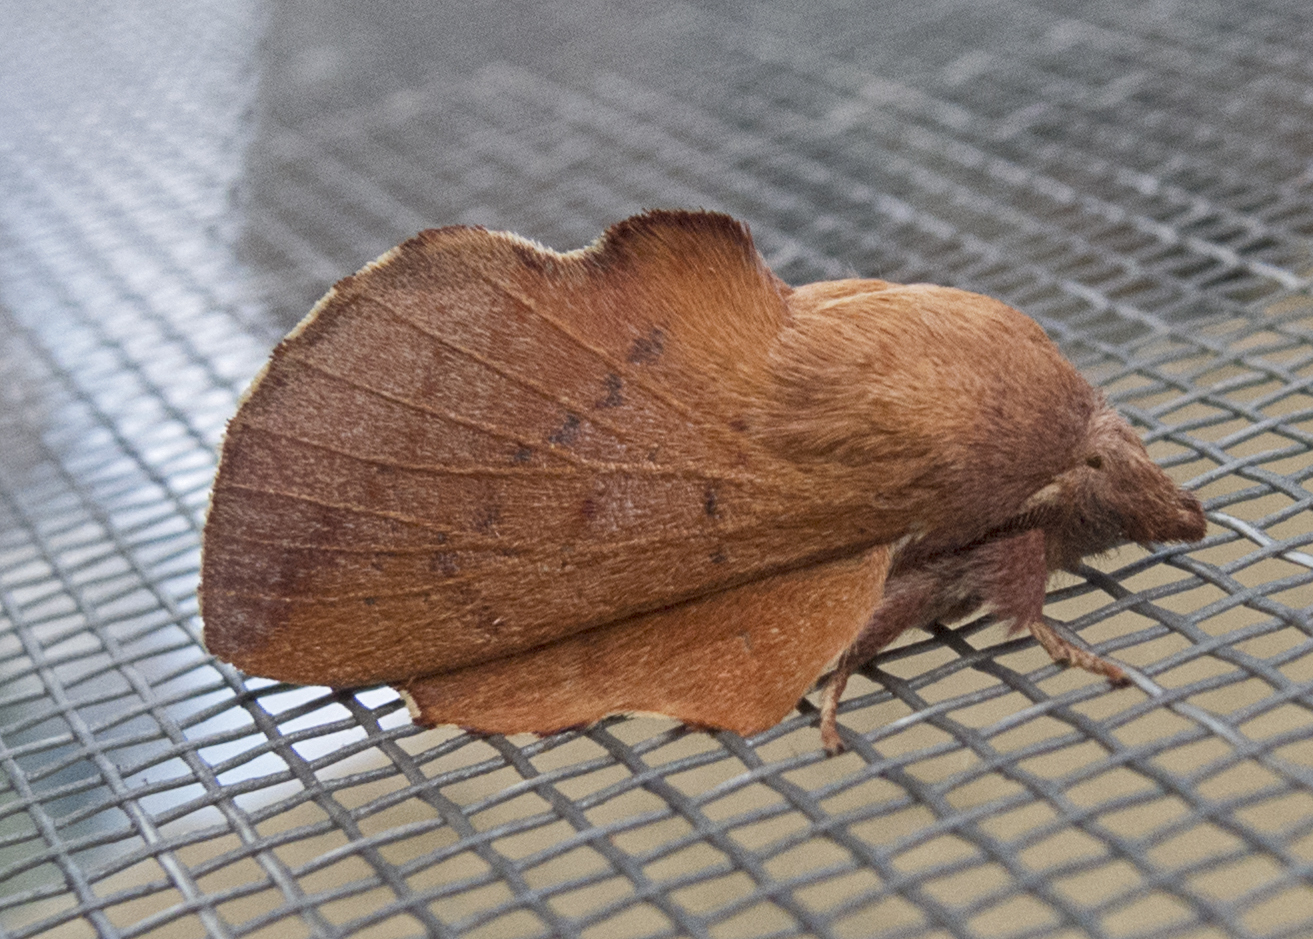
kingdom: Animalia
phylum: Arthropoda
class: Insecta
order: Lepidoptera
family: Lasiocampidae
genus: Gastropacha
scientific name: Gastropacha quercifolia
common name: Lappet
